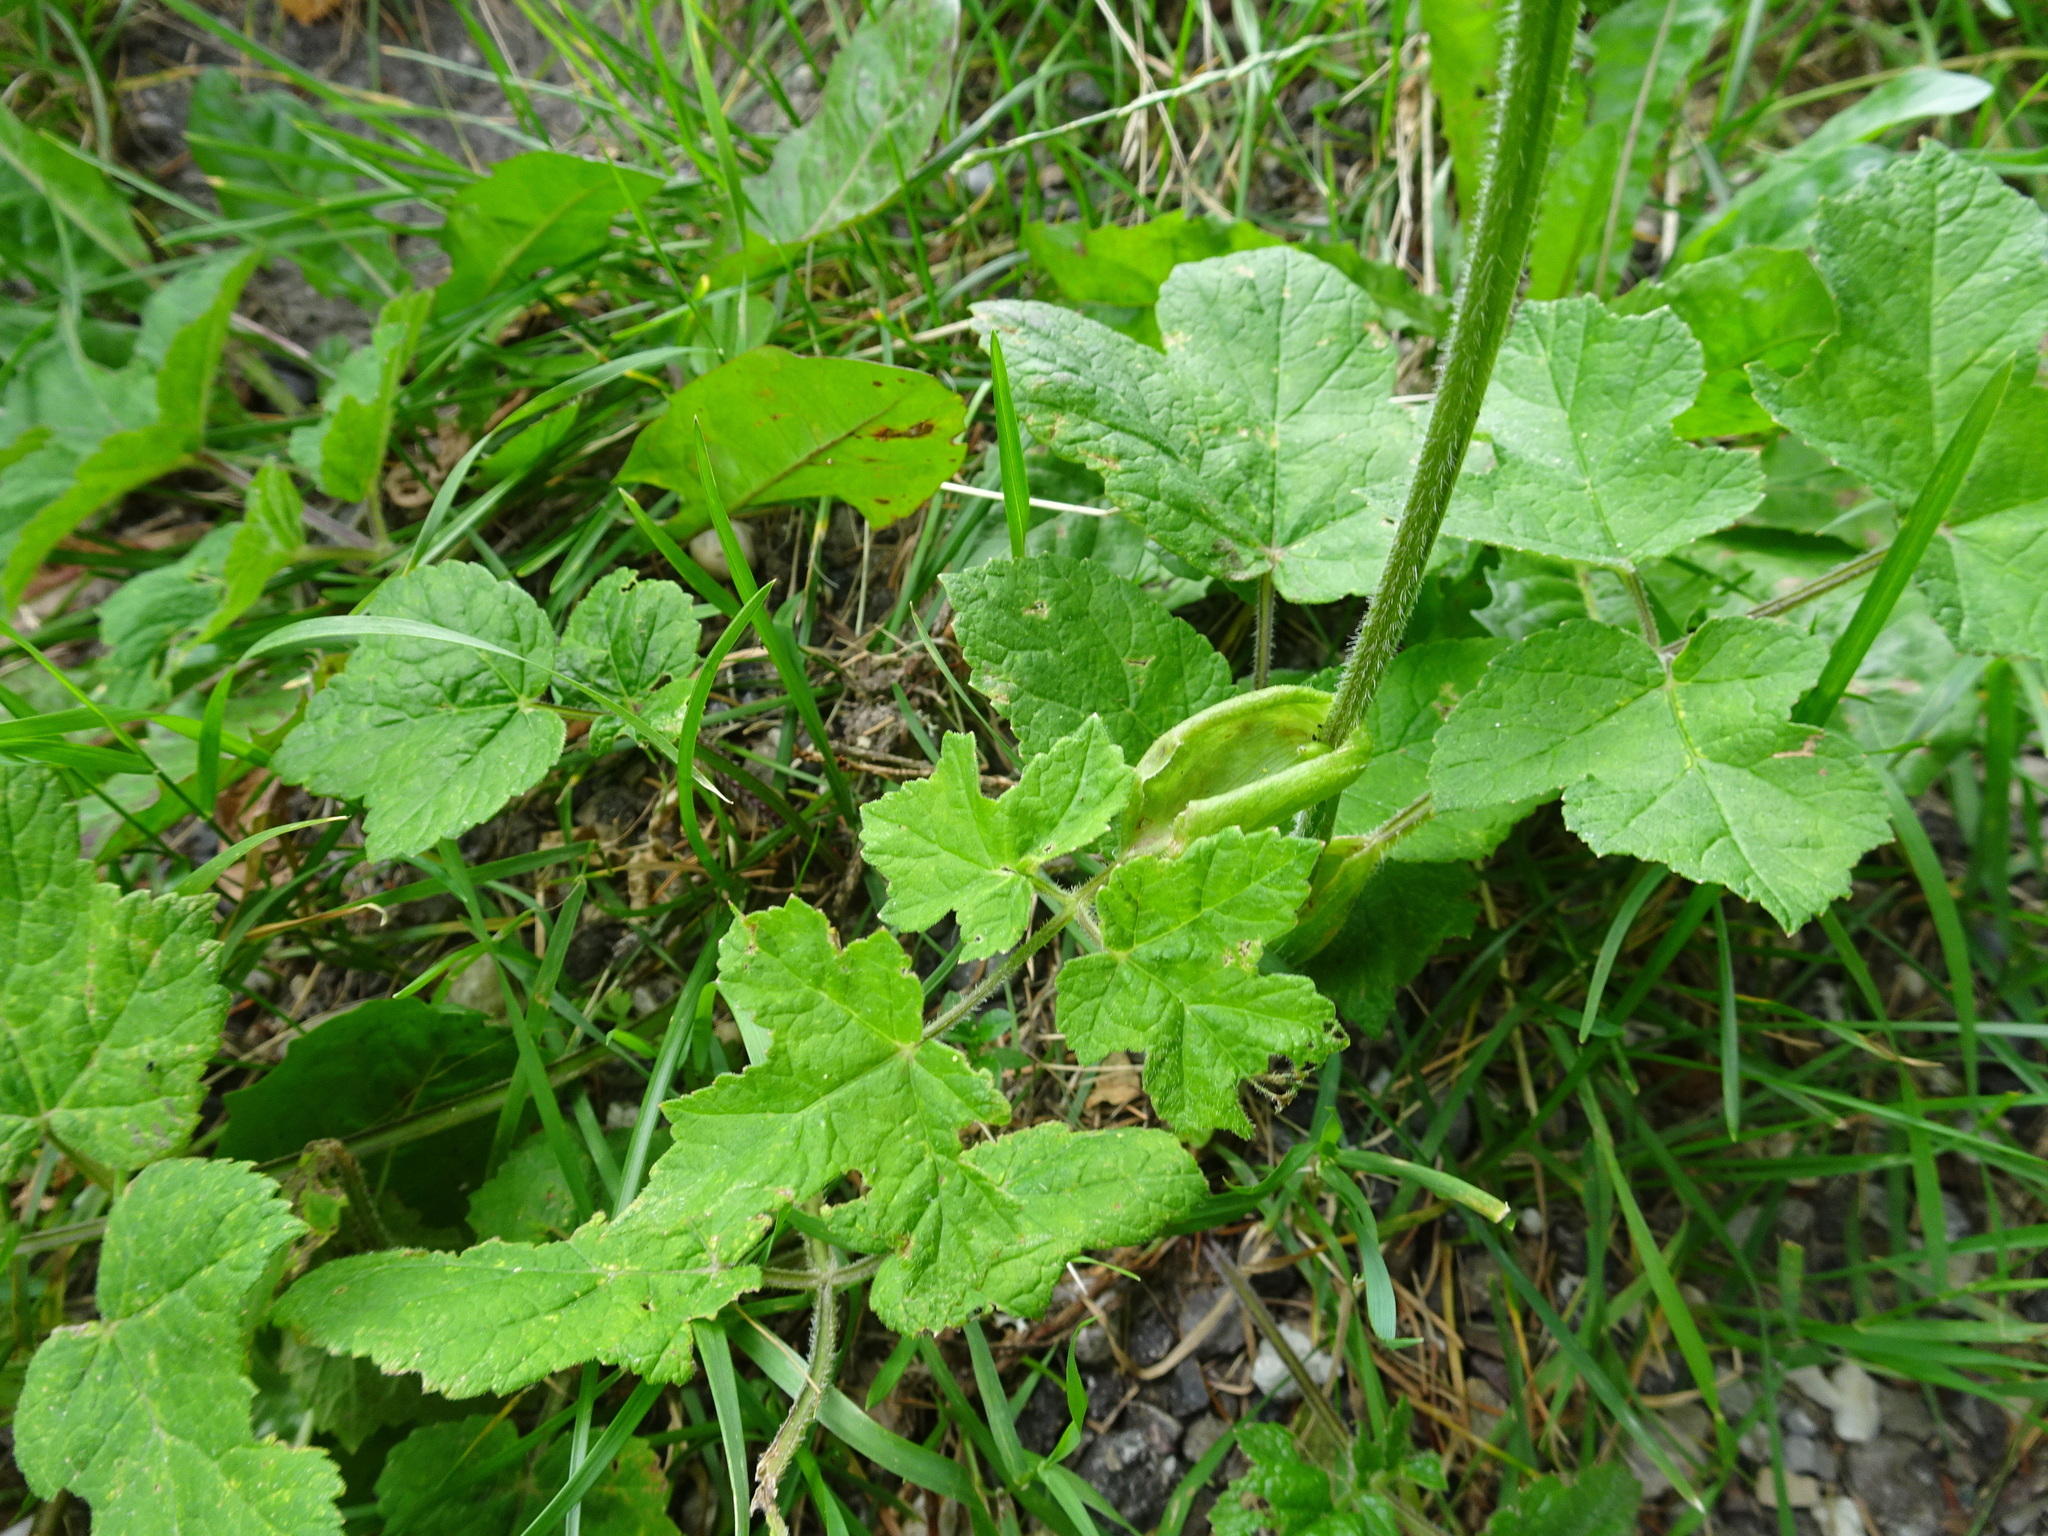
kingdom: Plantae
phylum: Tracheophyta
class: Magnoliopsida
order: Apiales
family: Apiaceae
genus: Heracleum
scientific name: Heracleum sphondylium
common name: Hogweed
